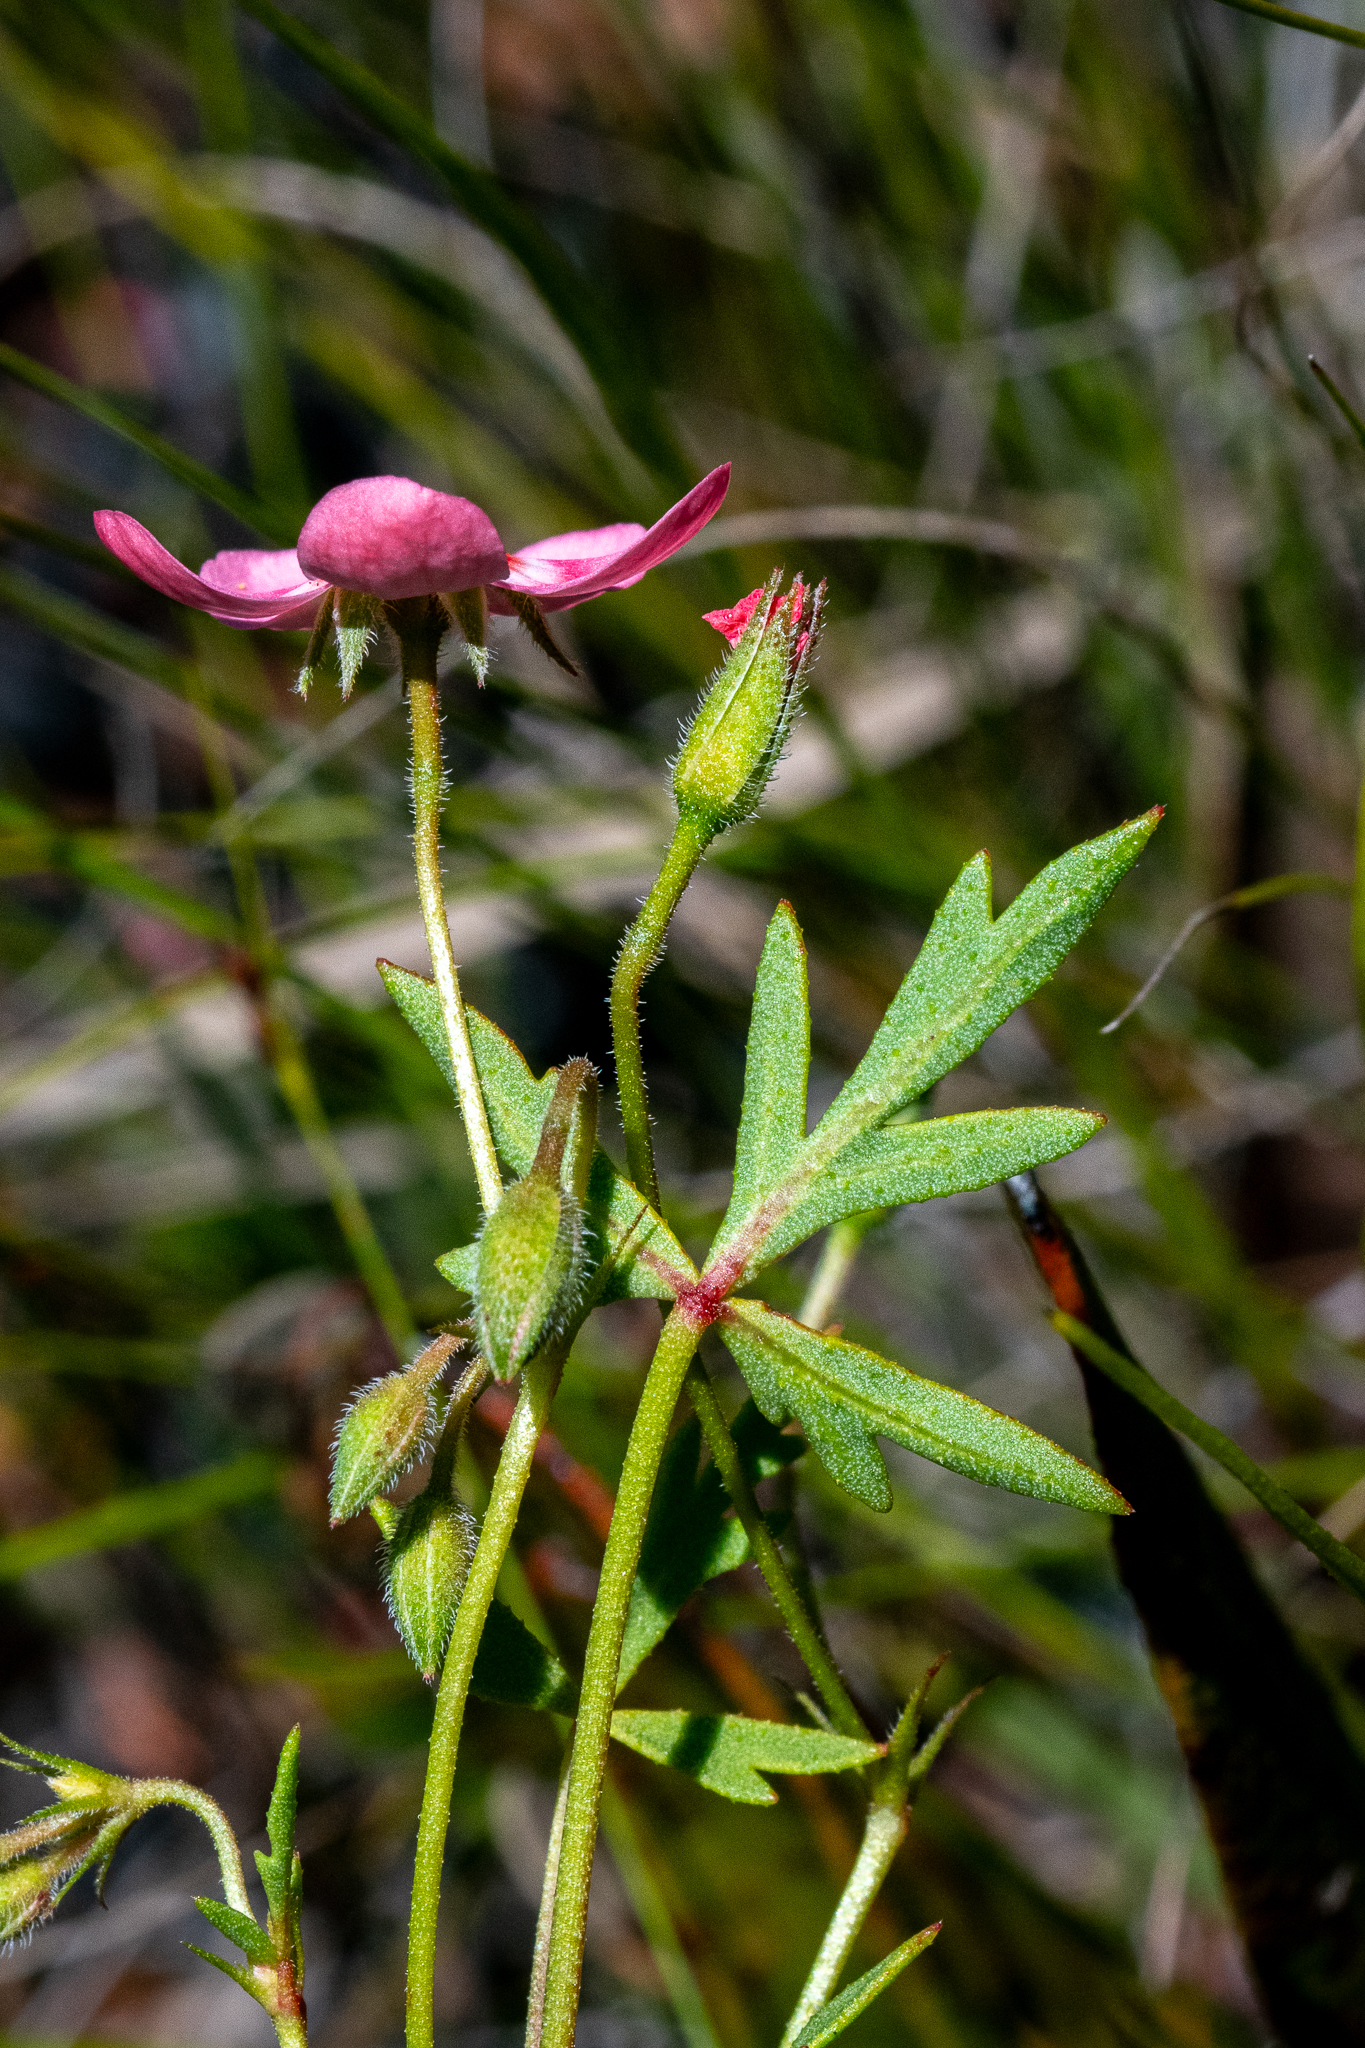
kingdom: Plantae
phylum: Tracheophyta
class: Magnoliopsida
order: Geraniales
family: Geraniaceae
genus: Pelargonium
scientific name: Pelargonium incarnatum
